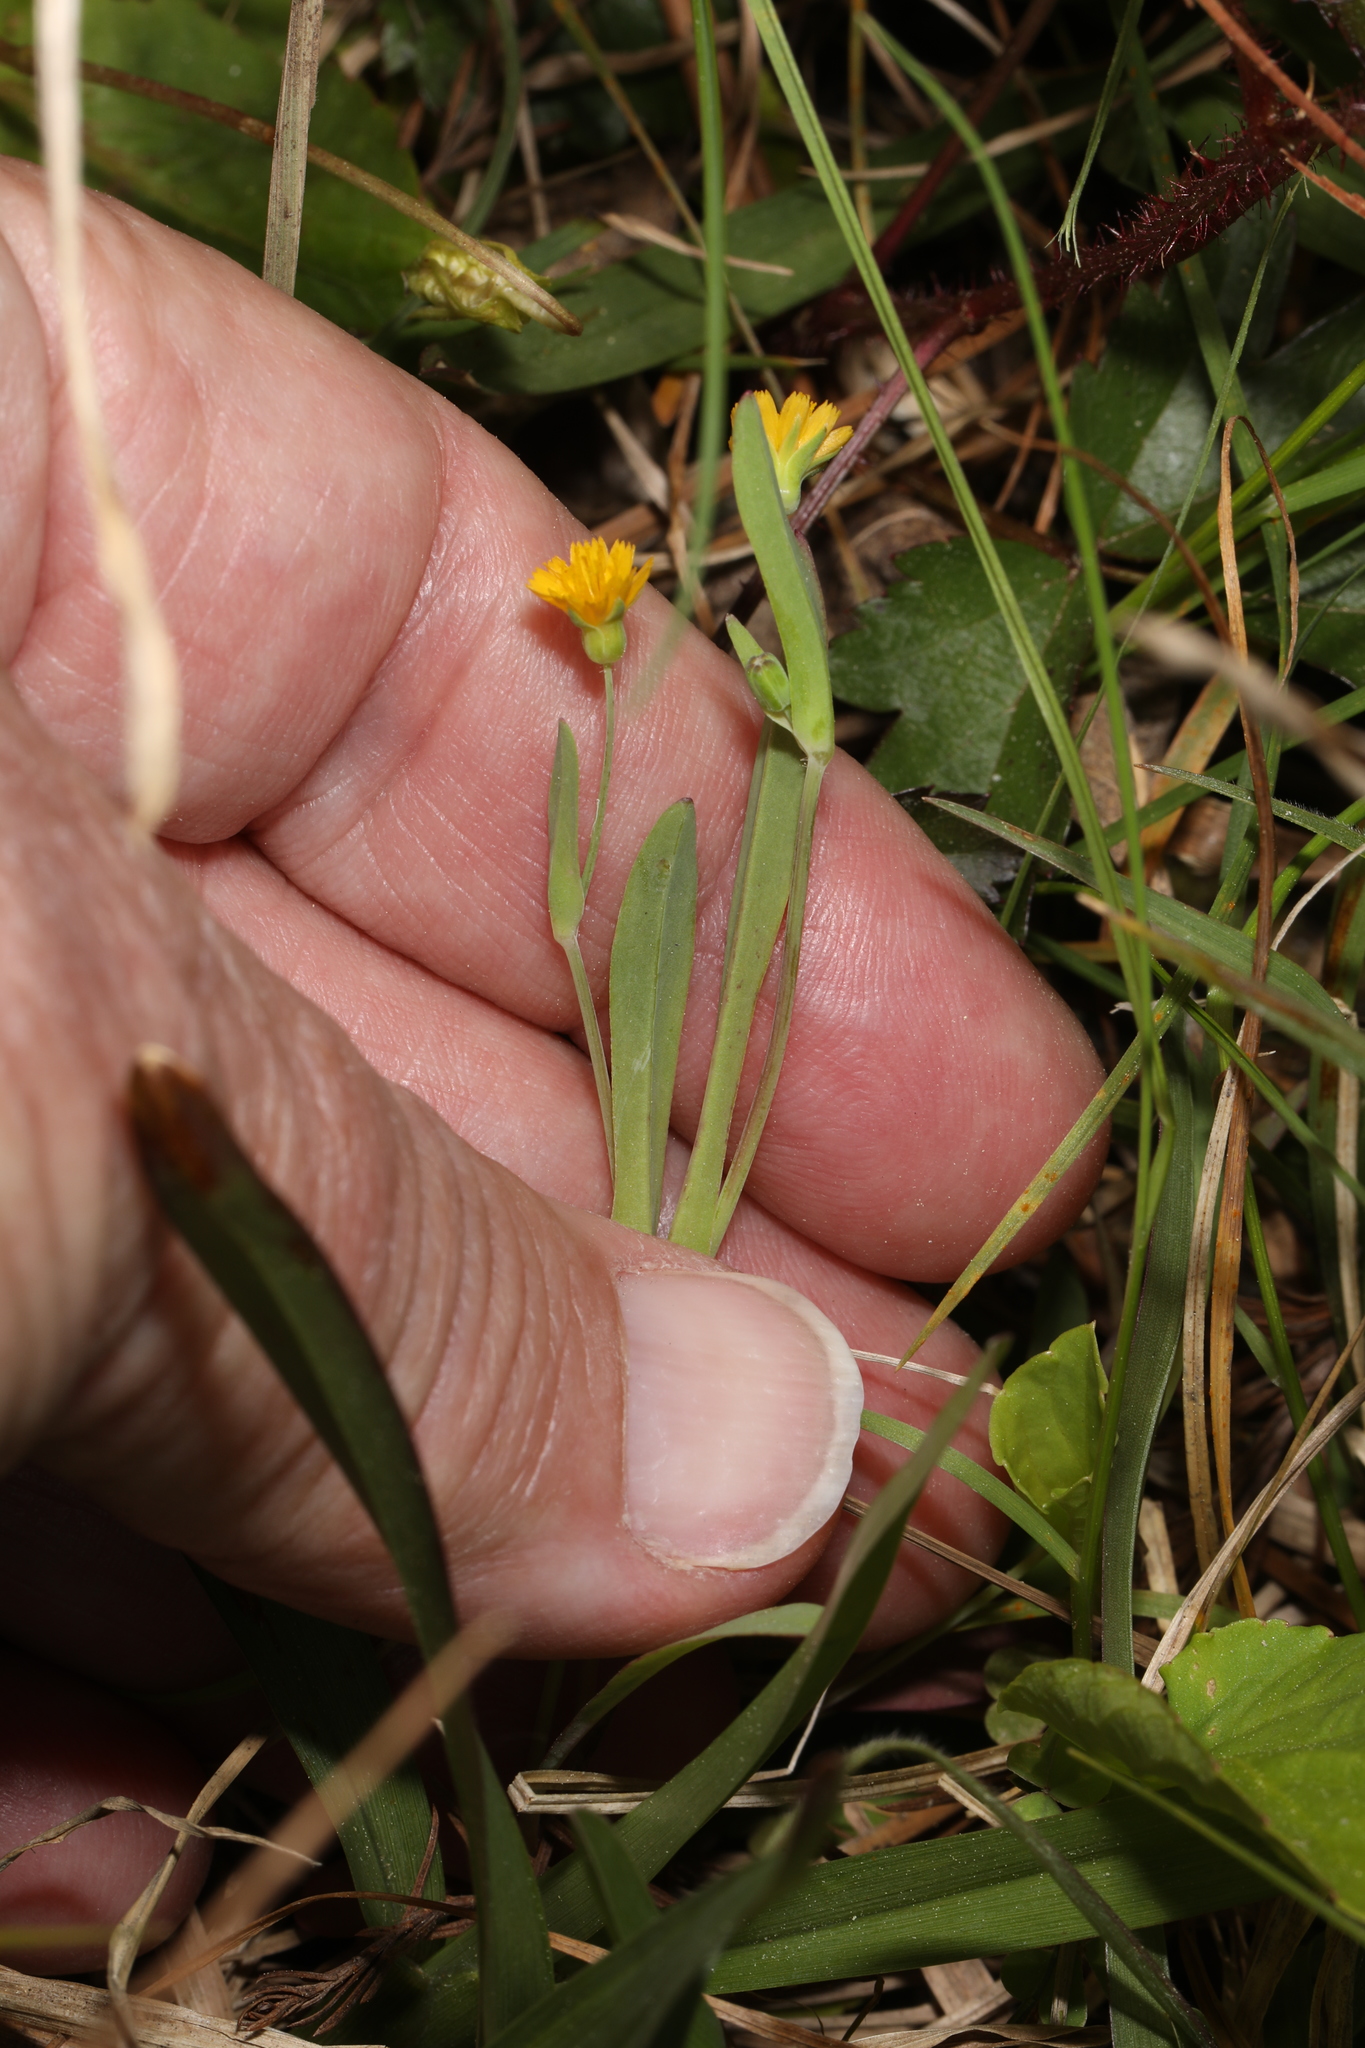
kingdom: Plantae
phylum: Tracheophyta
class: Magnoliopsida
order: Asterales
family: Asteraceae
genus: Krigia
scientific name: Krigia cespitosa
